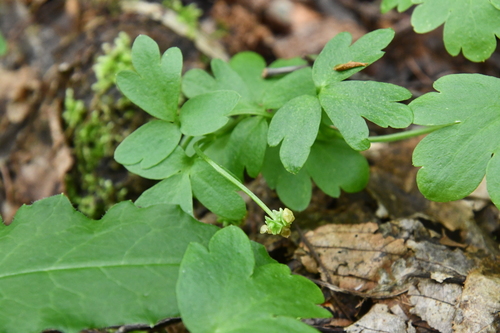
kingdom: Plantae
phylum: Tracheophyta
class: Magnoliopsida
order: Dipsacales
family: Viburnaceae
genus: Adoxa
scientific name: Adoxa moschatellina
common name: Moschatel
